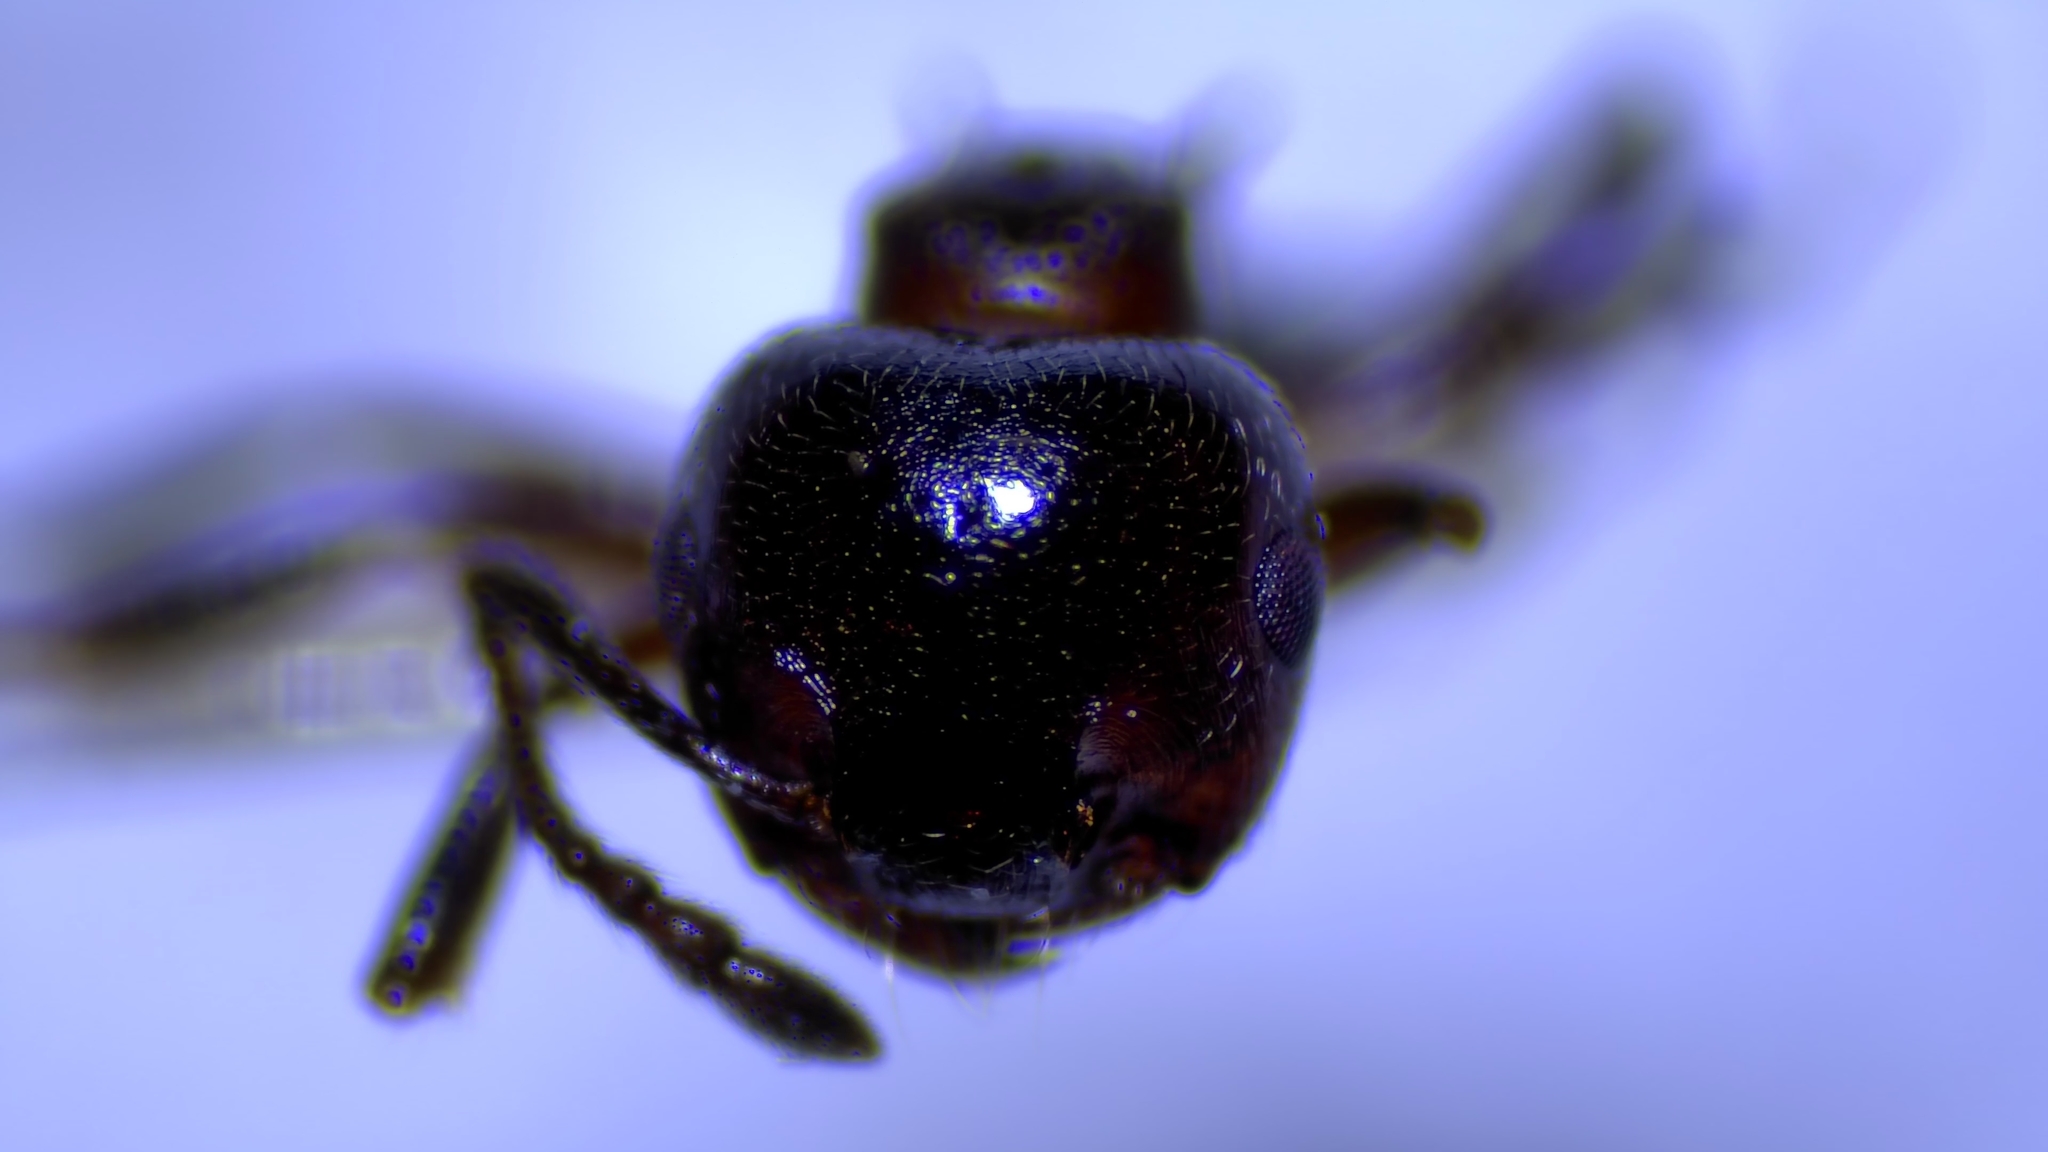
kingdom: Animalia
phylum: Arthropoda
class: Insecta
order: Hymenoptera
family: Formicidae
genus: Crematogaster
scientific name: Crematogaster cerasi
